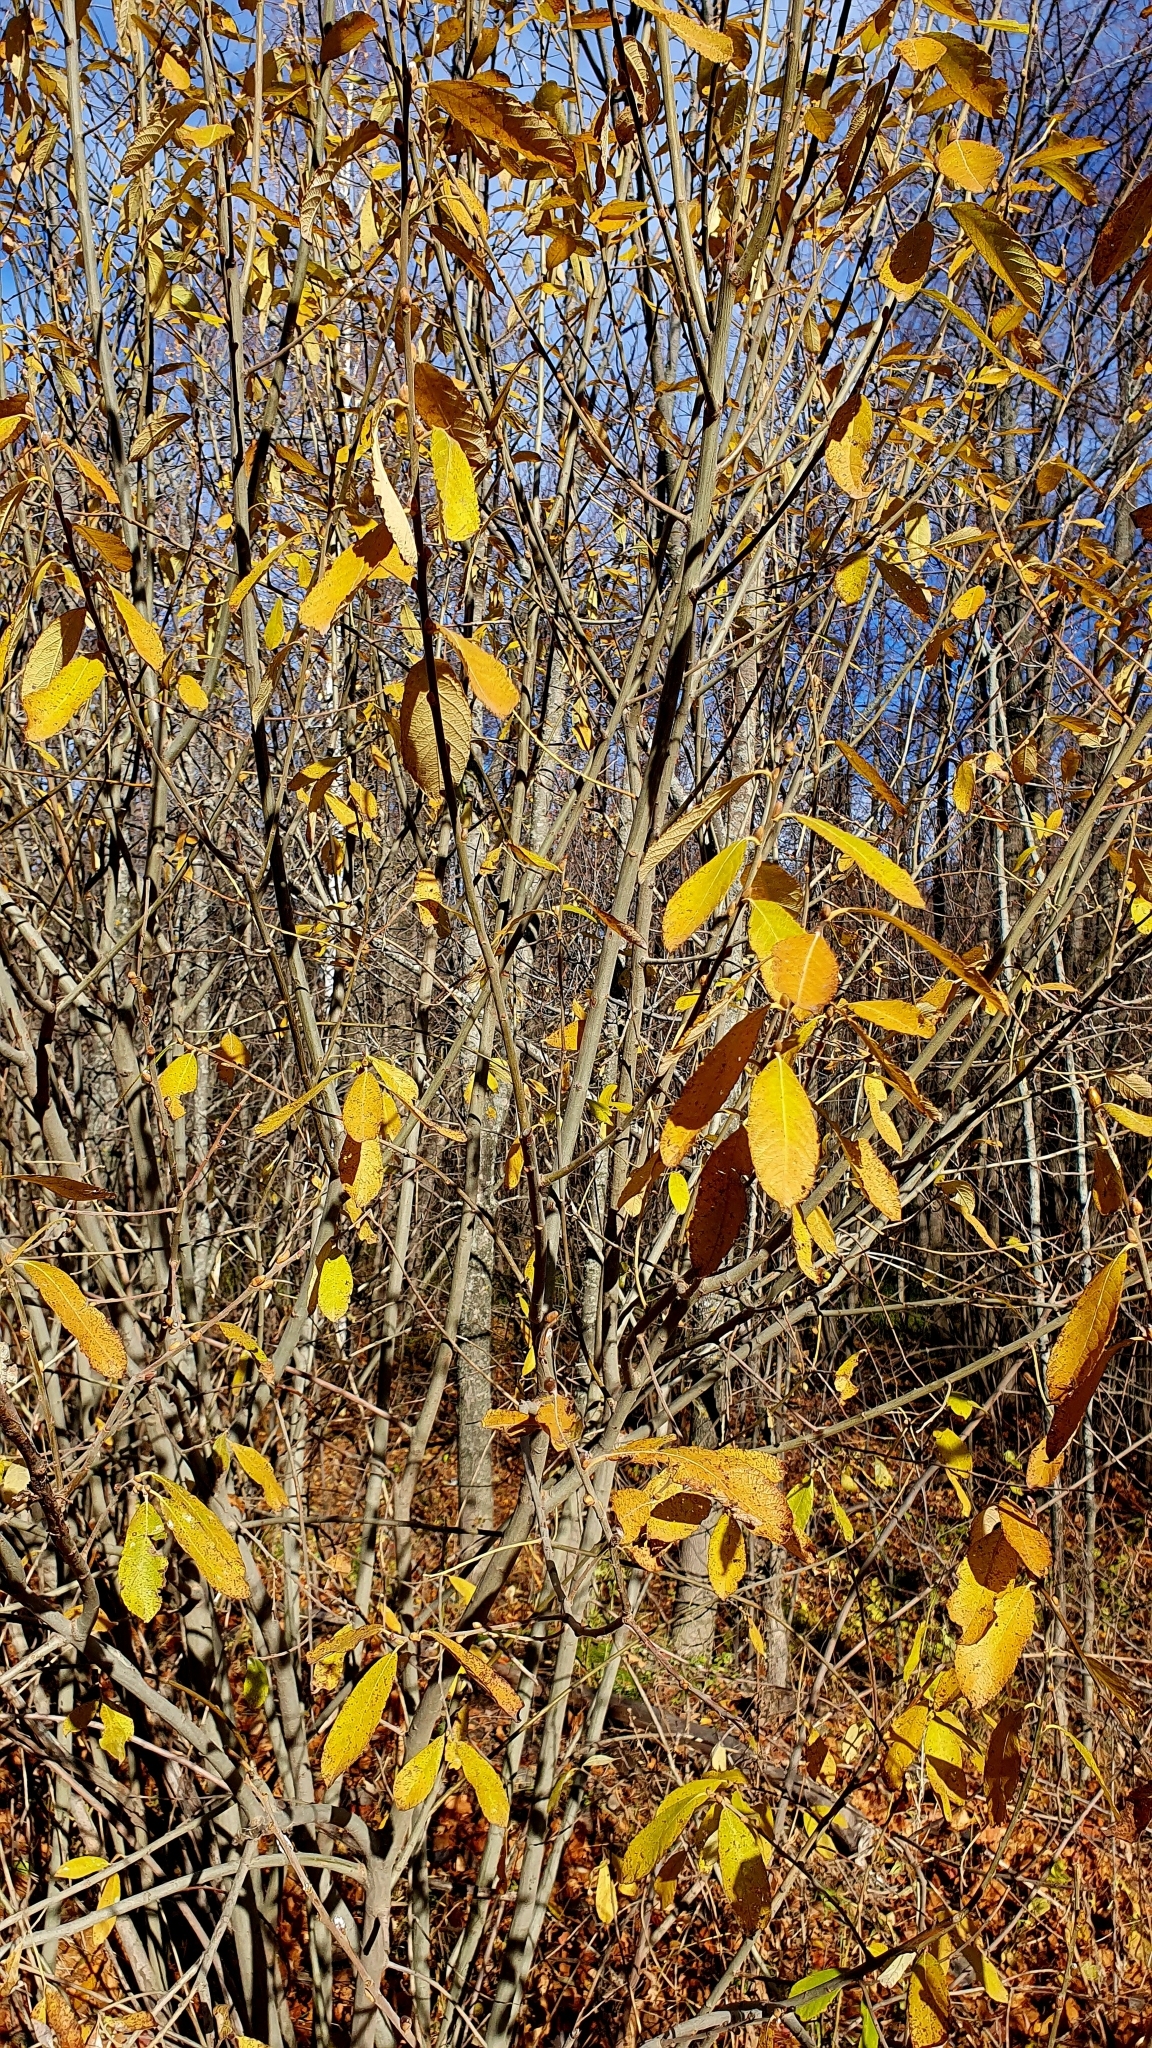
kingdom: Plantae
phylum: Tracheophyta
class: Magnoliopsida
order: Malpighiales
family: Salicaceae
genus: Salix
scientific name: Salix cinerea
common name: Common sallow
